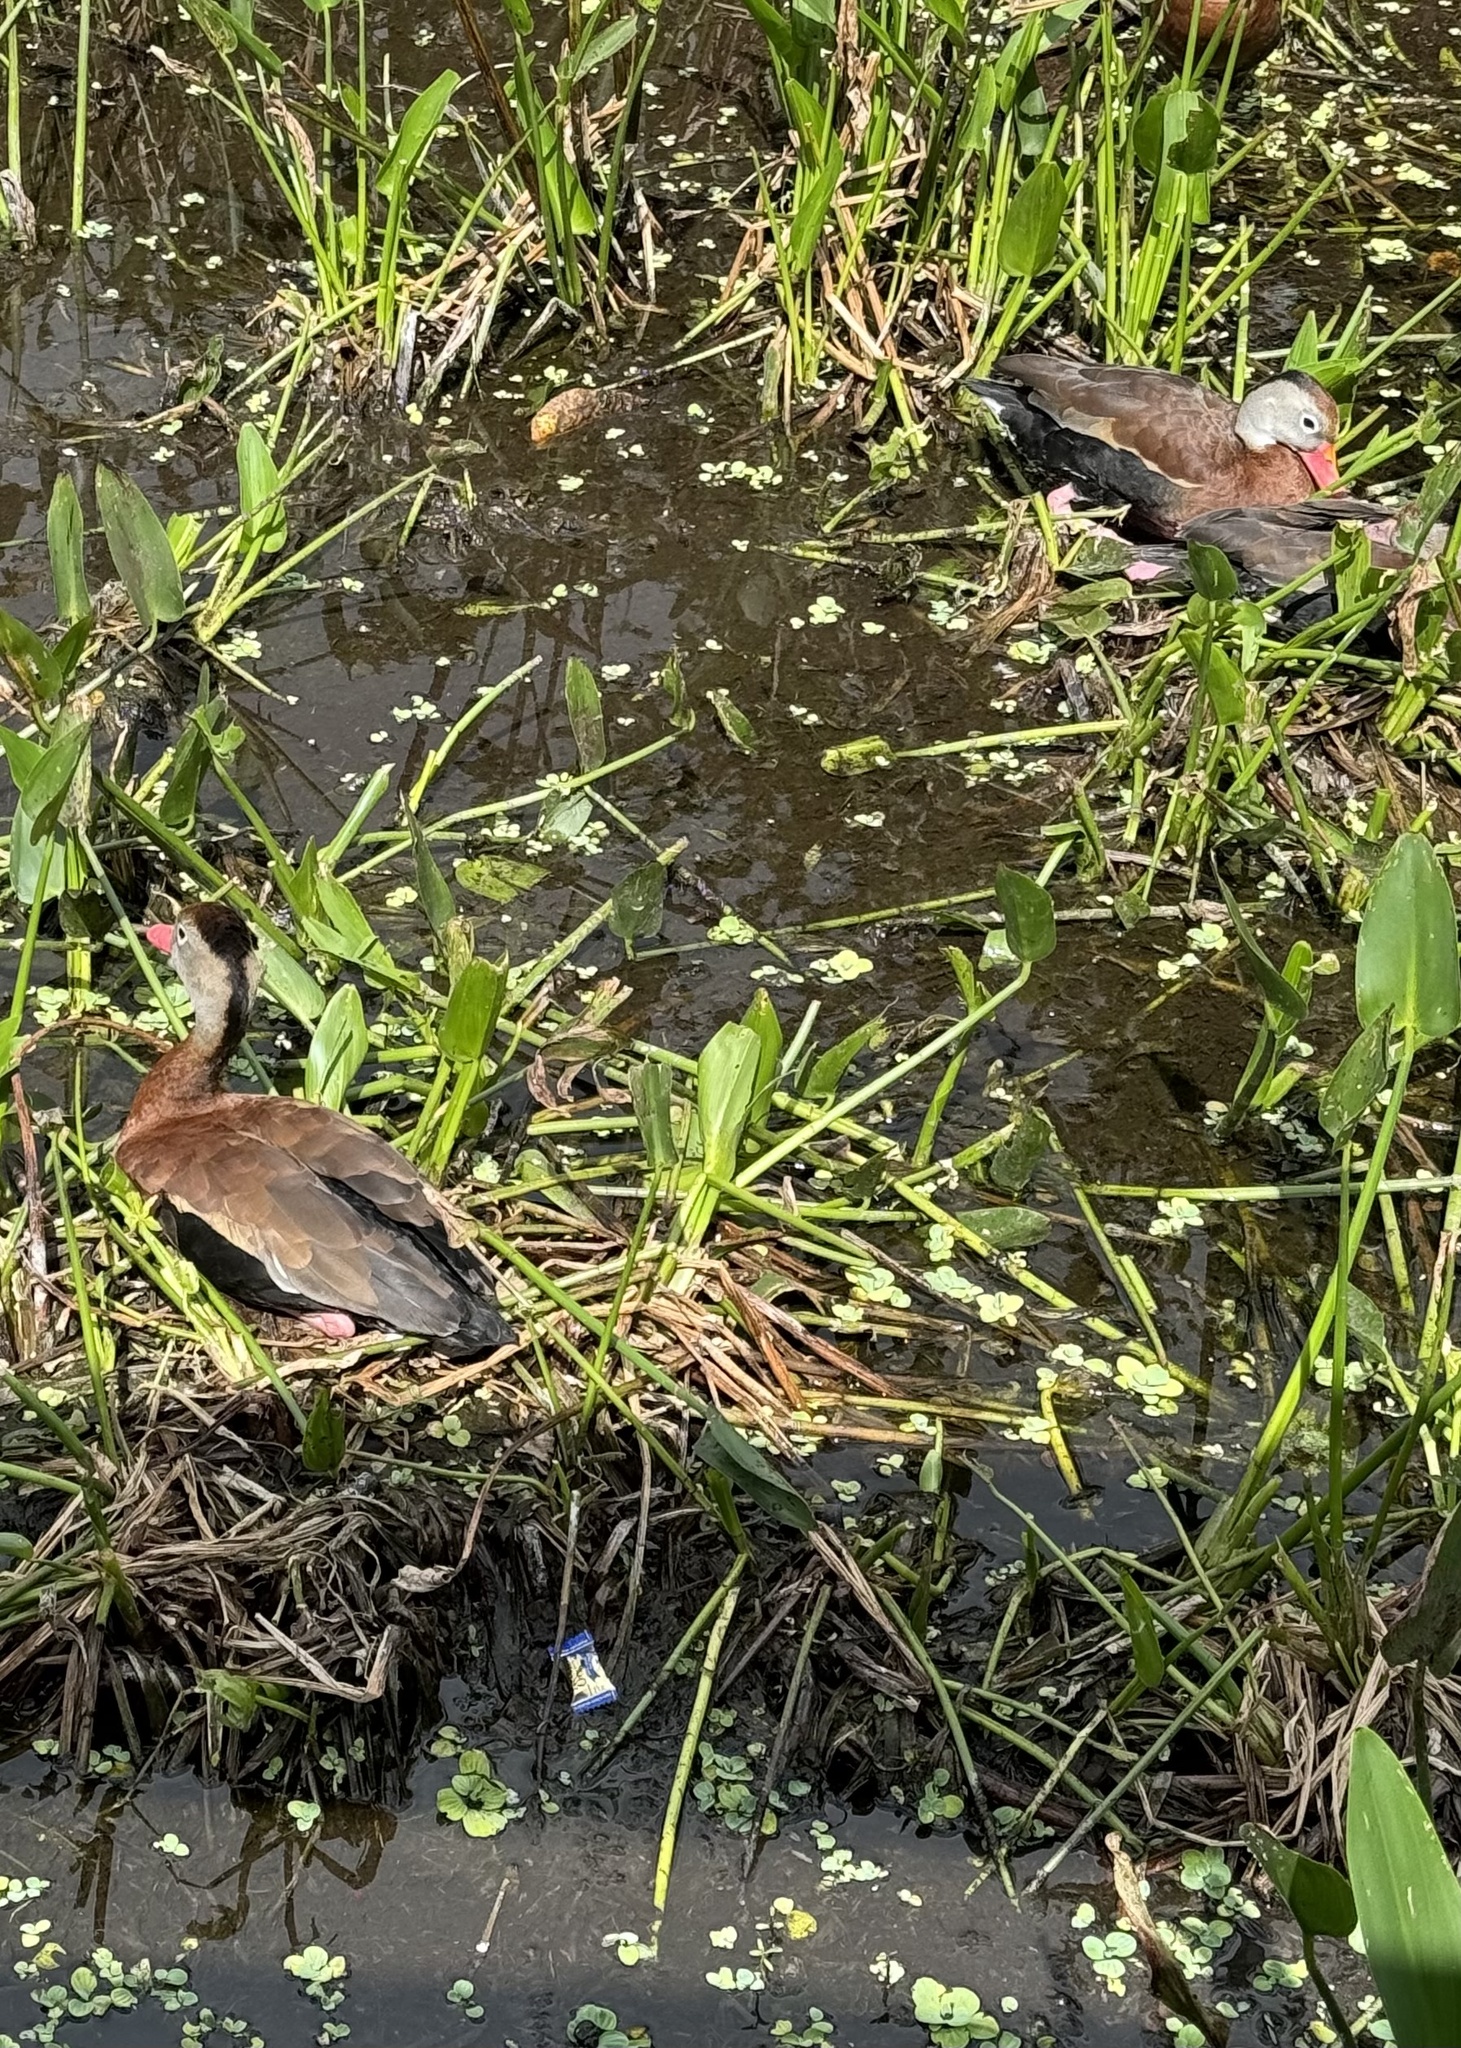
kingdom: Animalia
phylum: Chordata
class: Aves
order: Anseriformes
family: Anatidae
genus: Dendrocygna
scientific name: Dendrocygna autumnalis
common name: Black-bellied whistling duck
